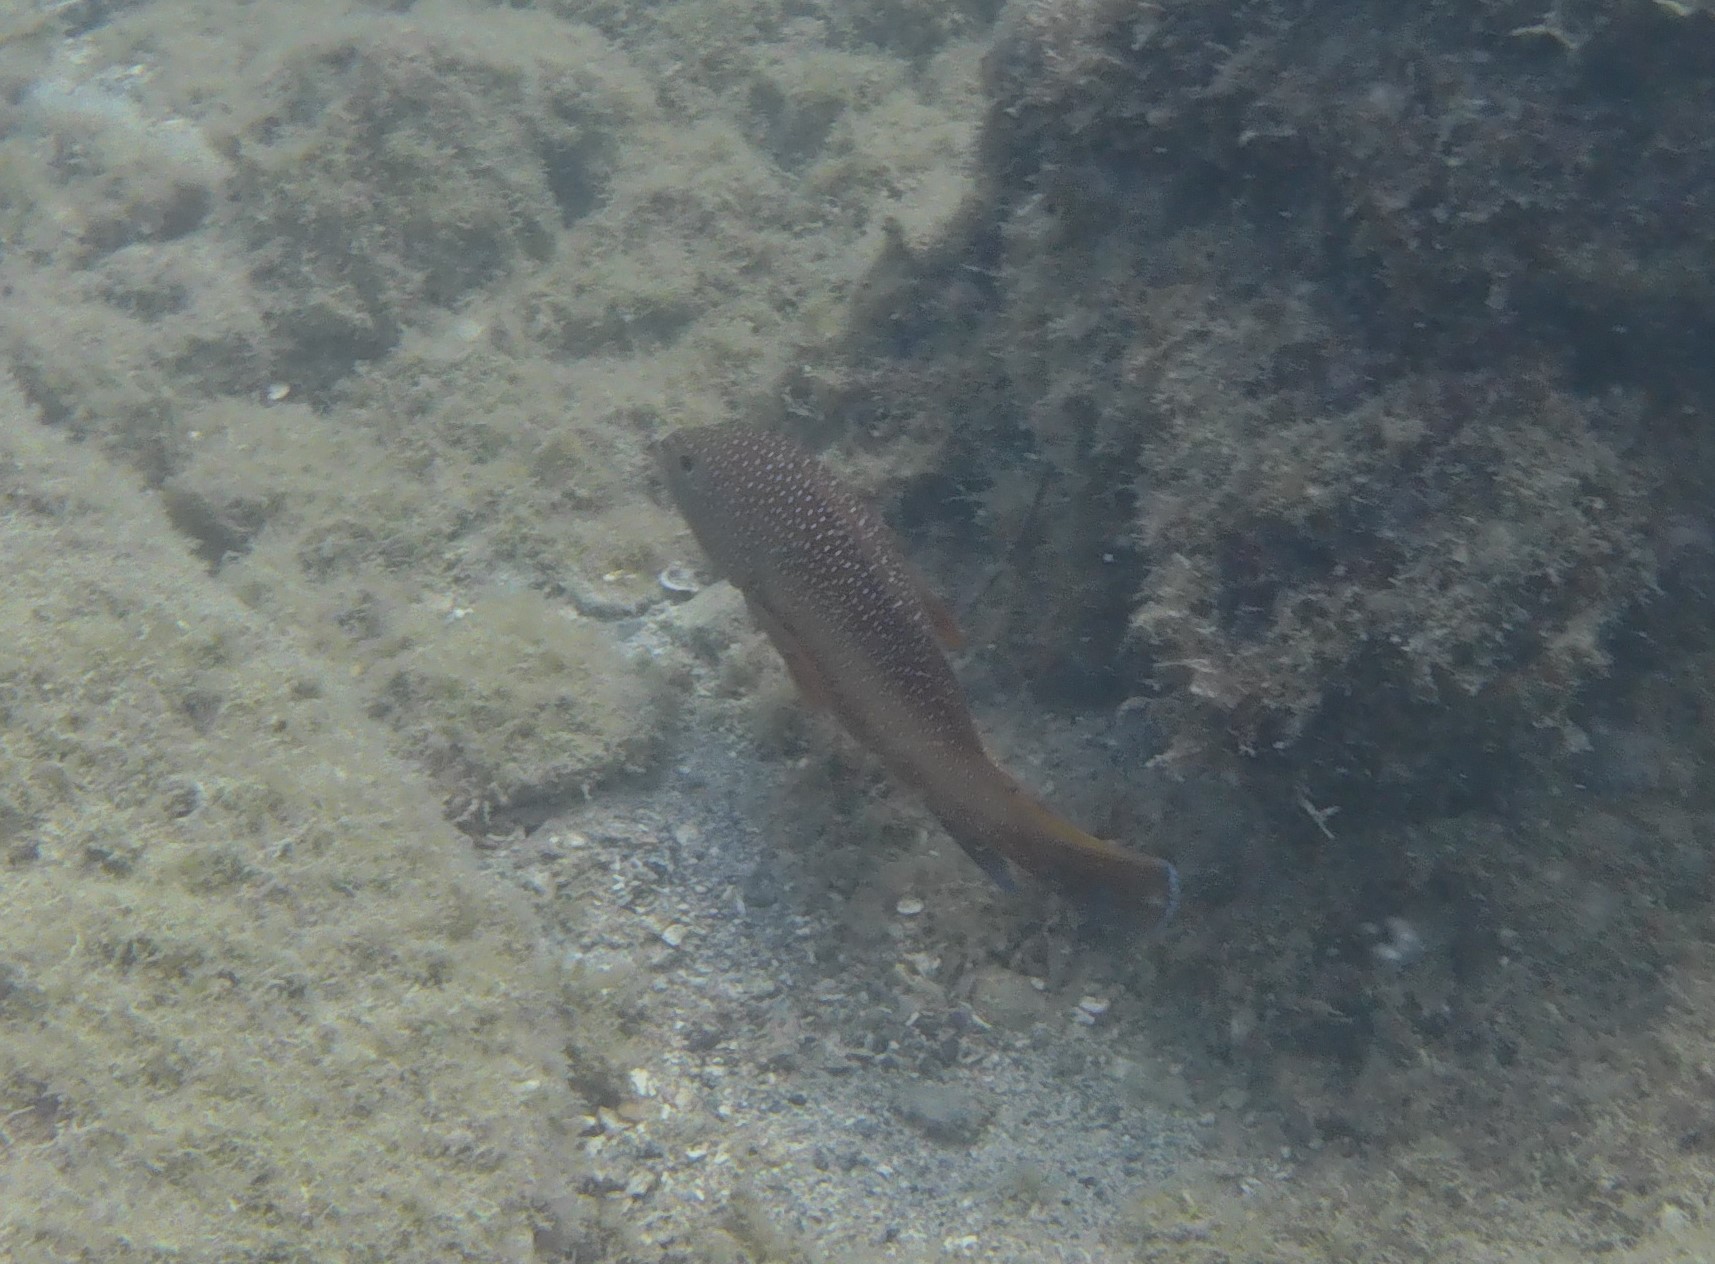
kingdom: Animalia
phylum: Chordata
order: Perciformes
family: Serranidae
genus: Cephalopholis
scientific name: Cephalopholis fulva
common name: Butterfish
